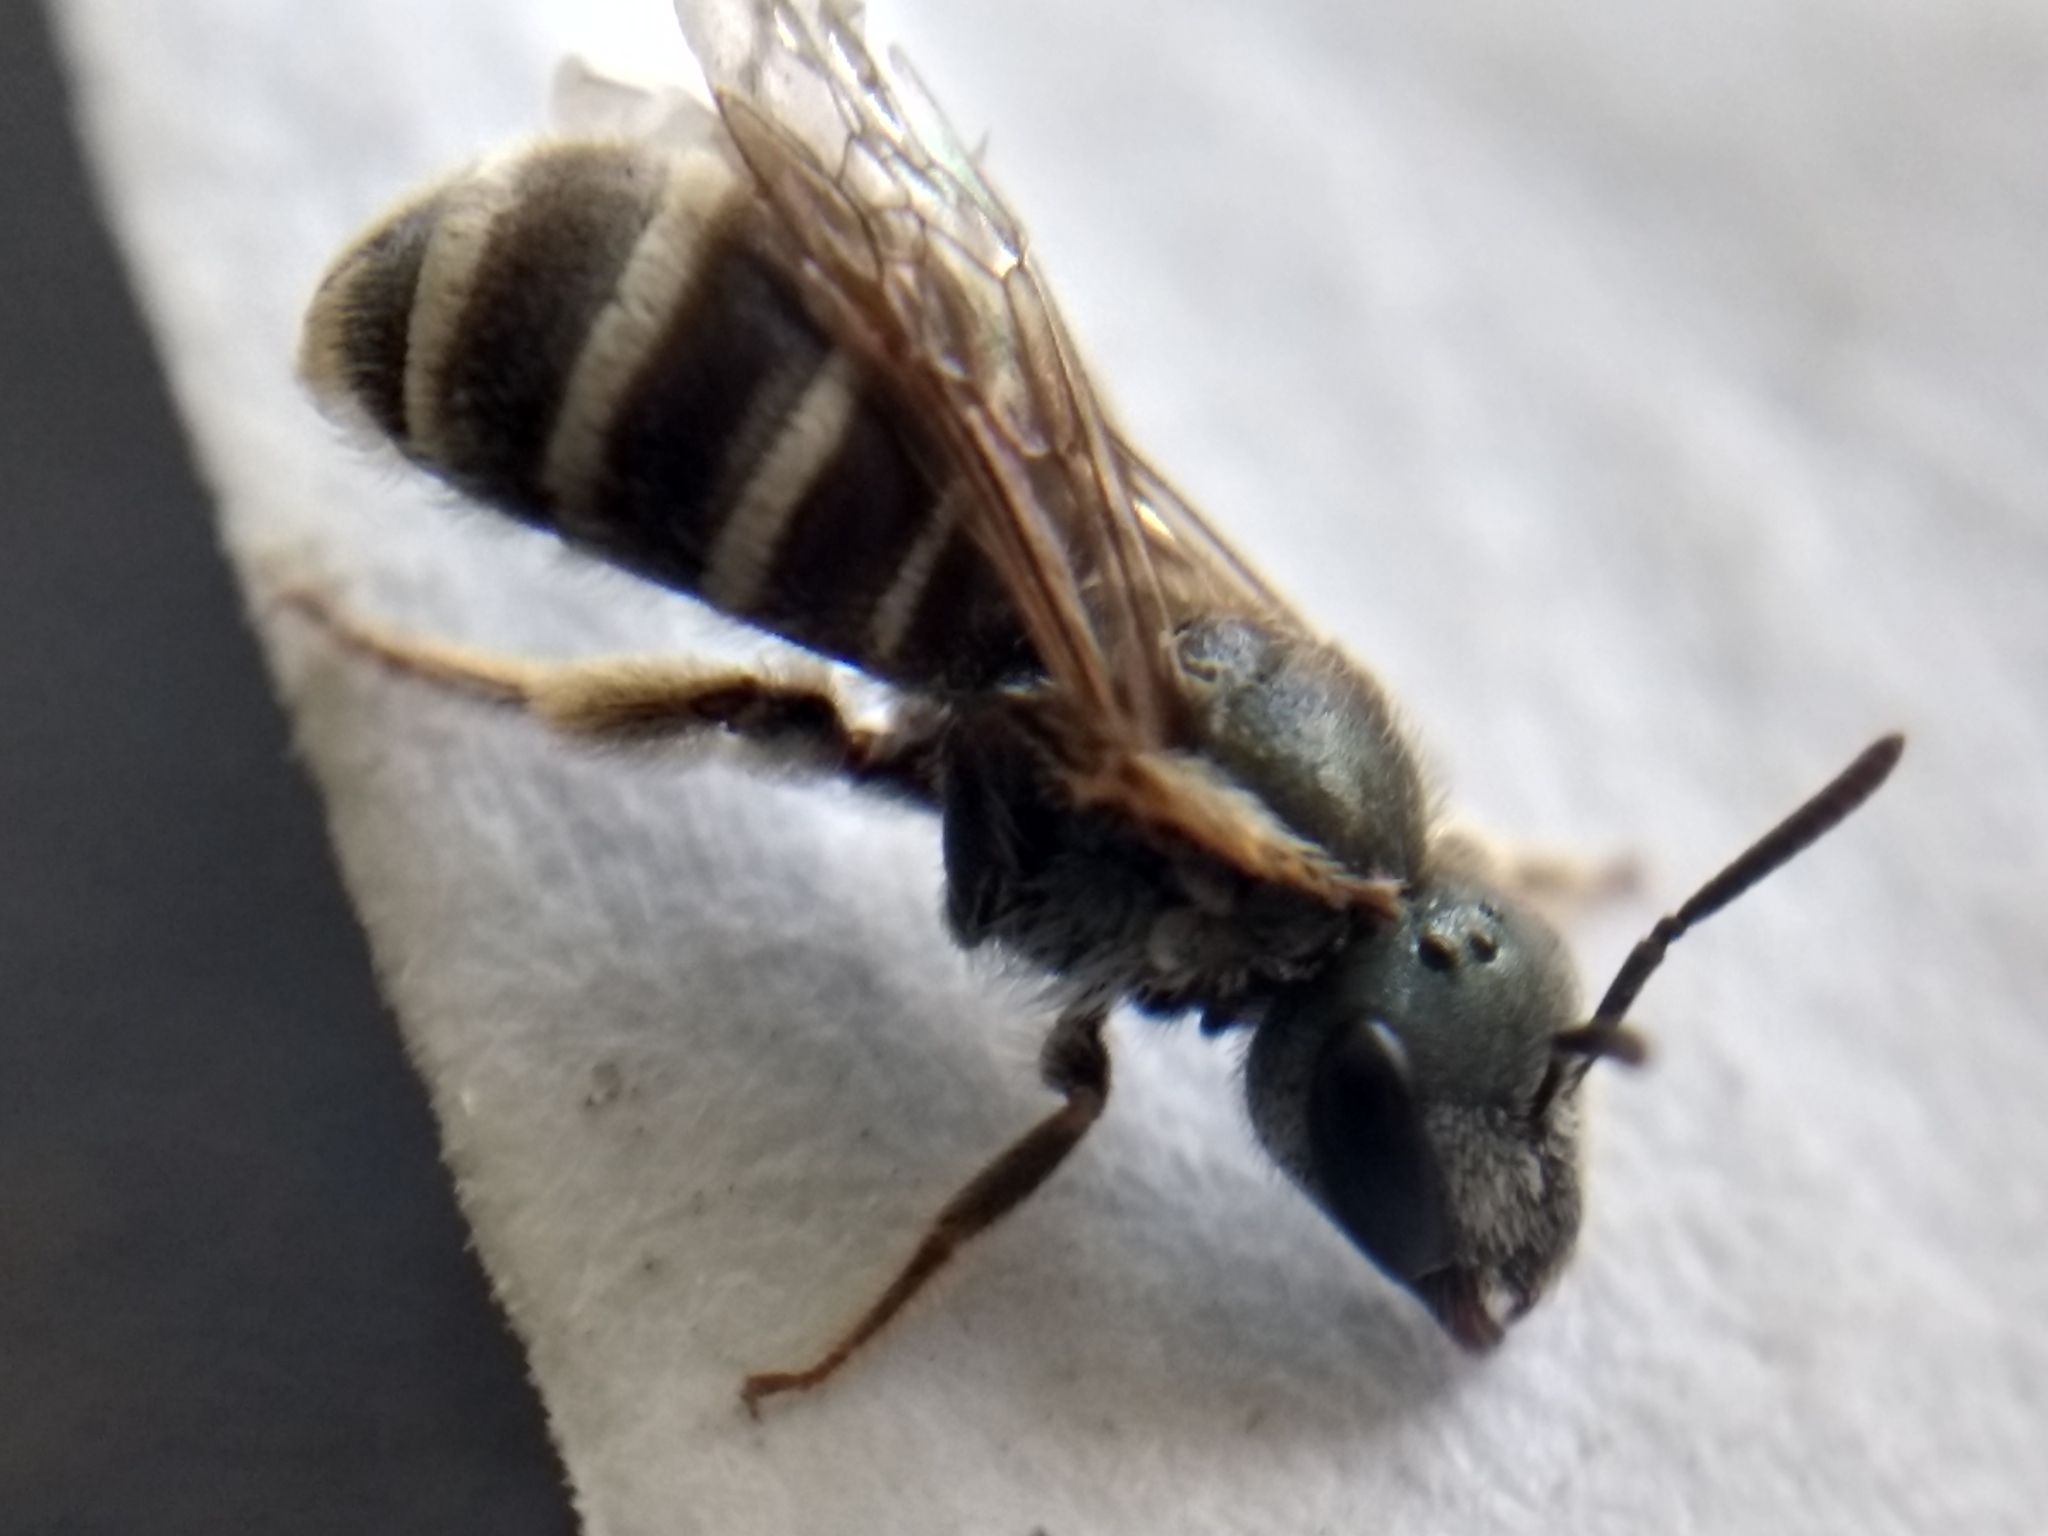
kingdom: Animalia
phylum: Arthropoda
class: Insecta
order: Hymenoptera
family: Halictidae
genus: Halictus
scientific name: Halictus tripartitus
